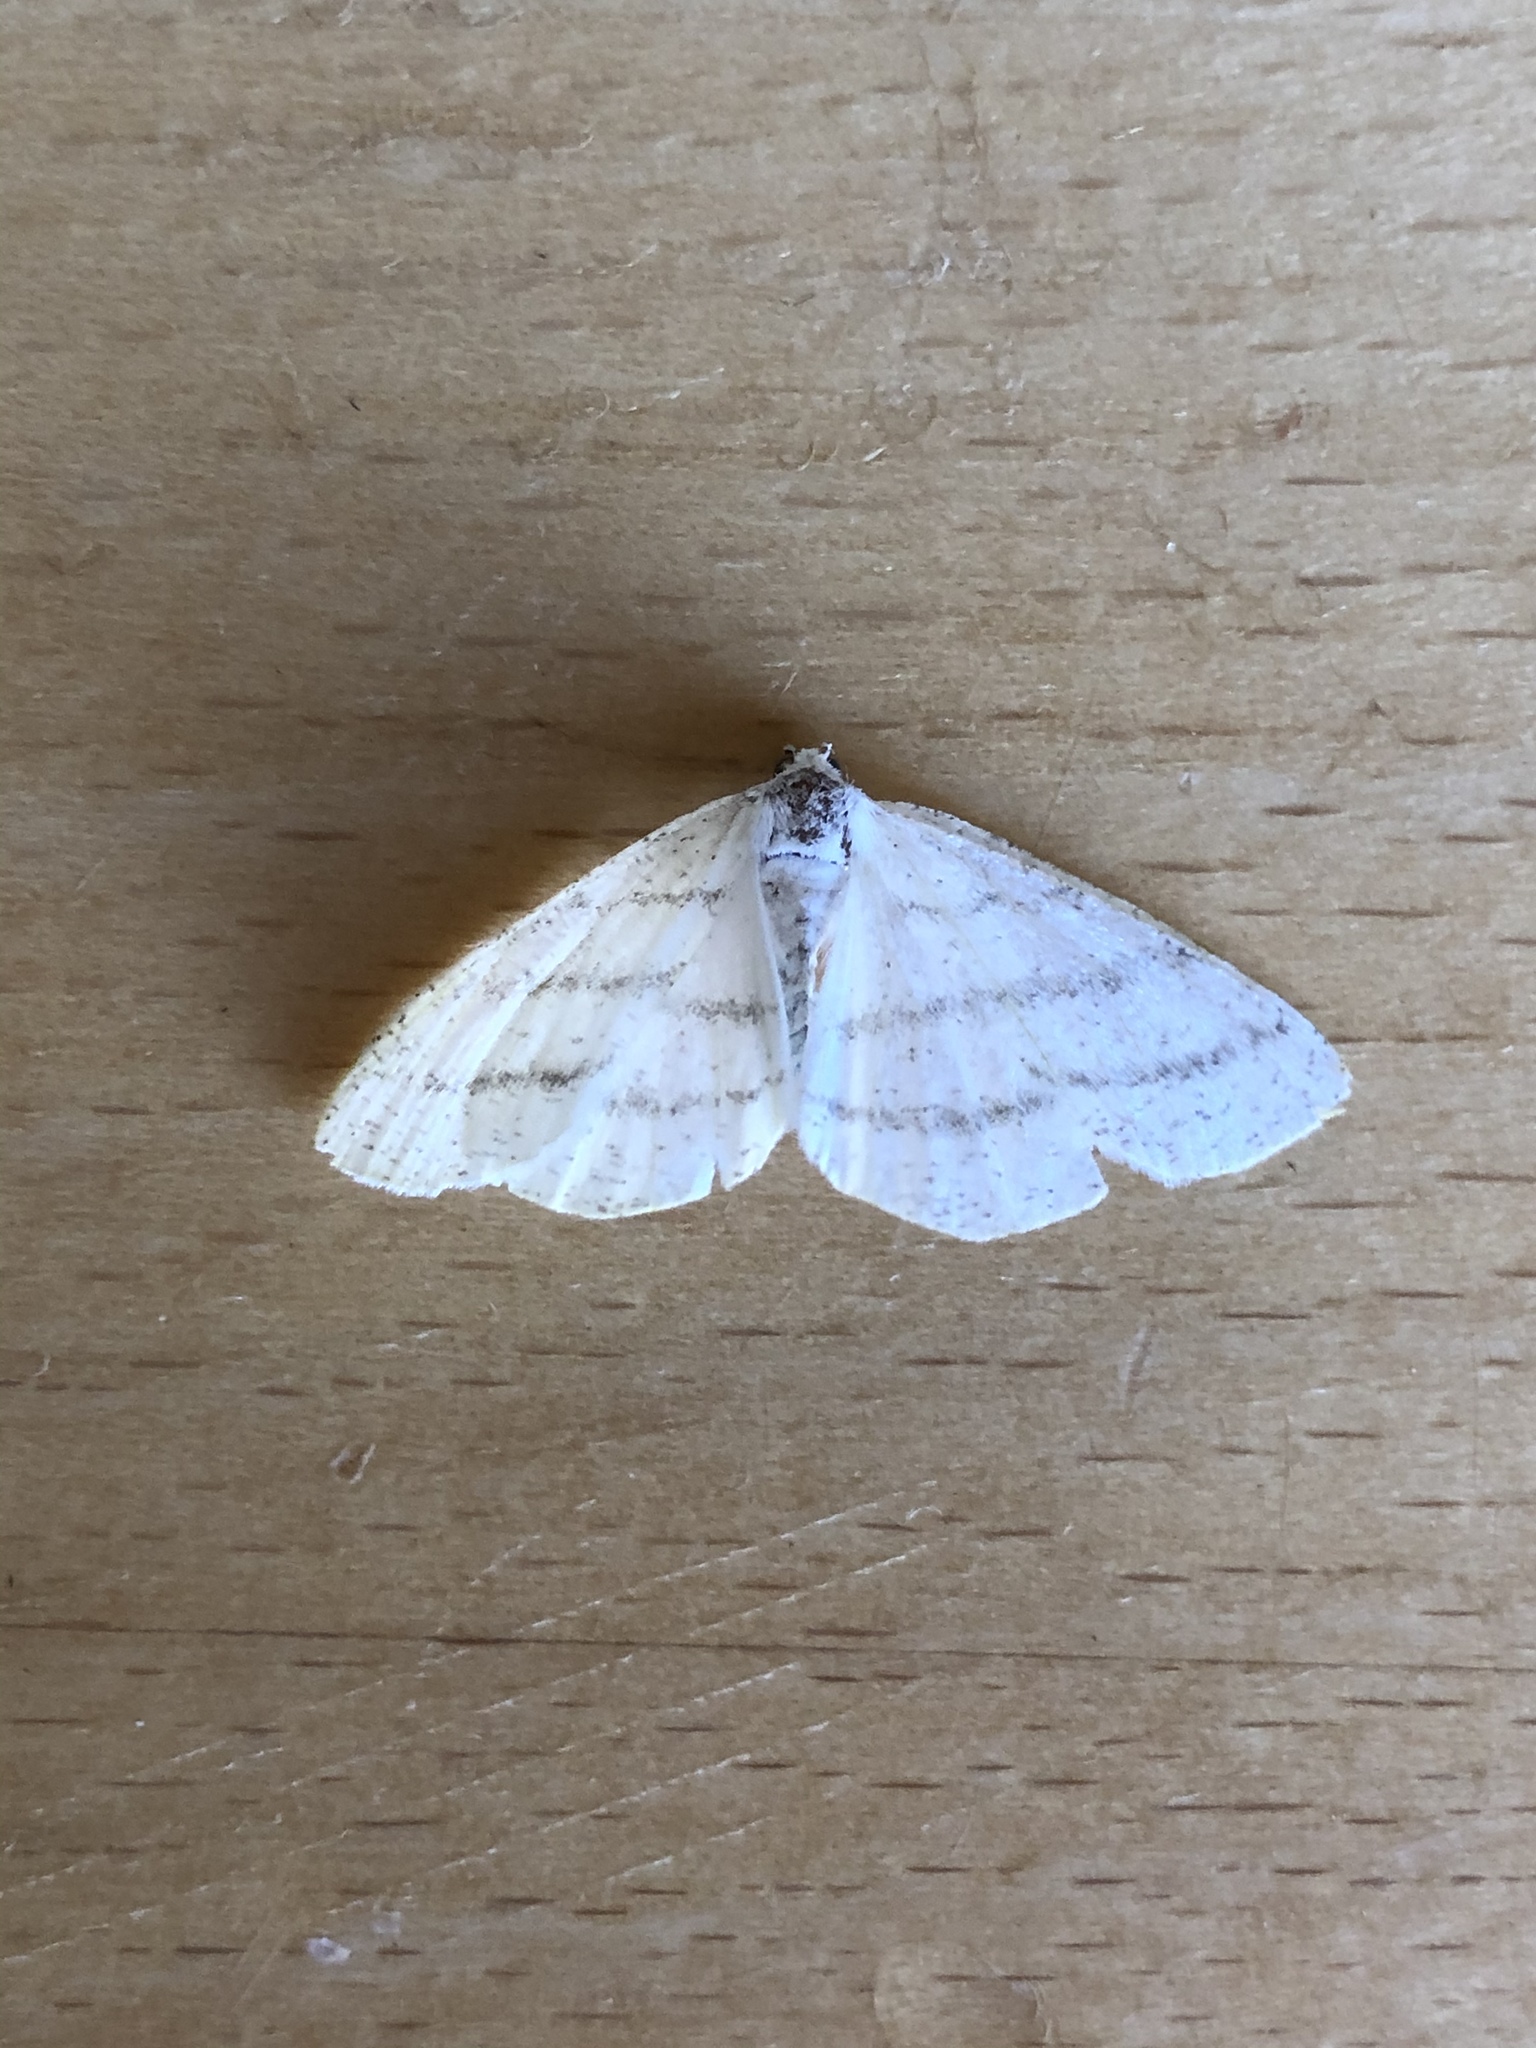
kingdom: Animalia
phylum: Arthropoda
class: Insecta
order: Lepidoptera
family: Geometridae
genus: Cabera
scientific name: Cabera pusaria
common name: Common white wave
